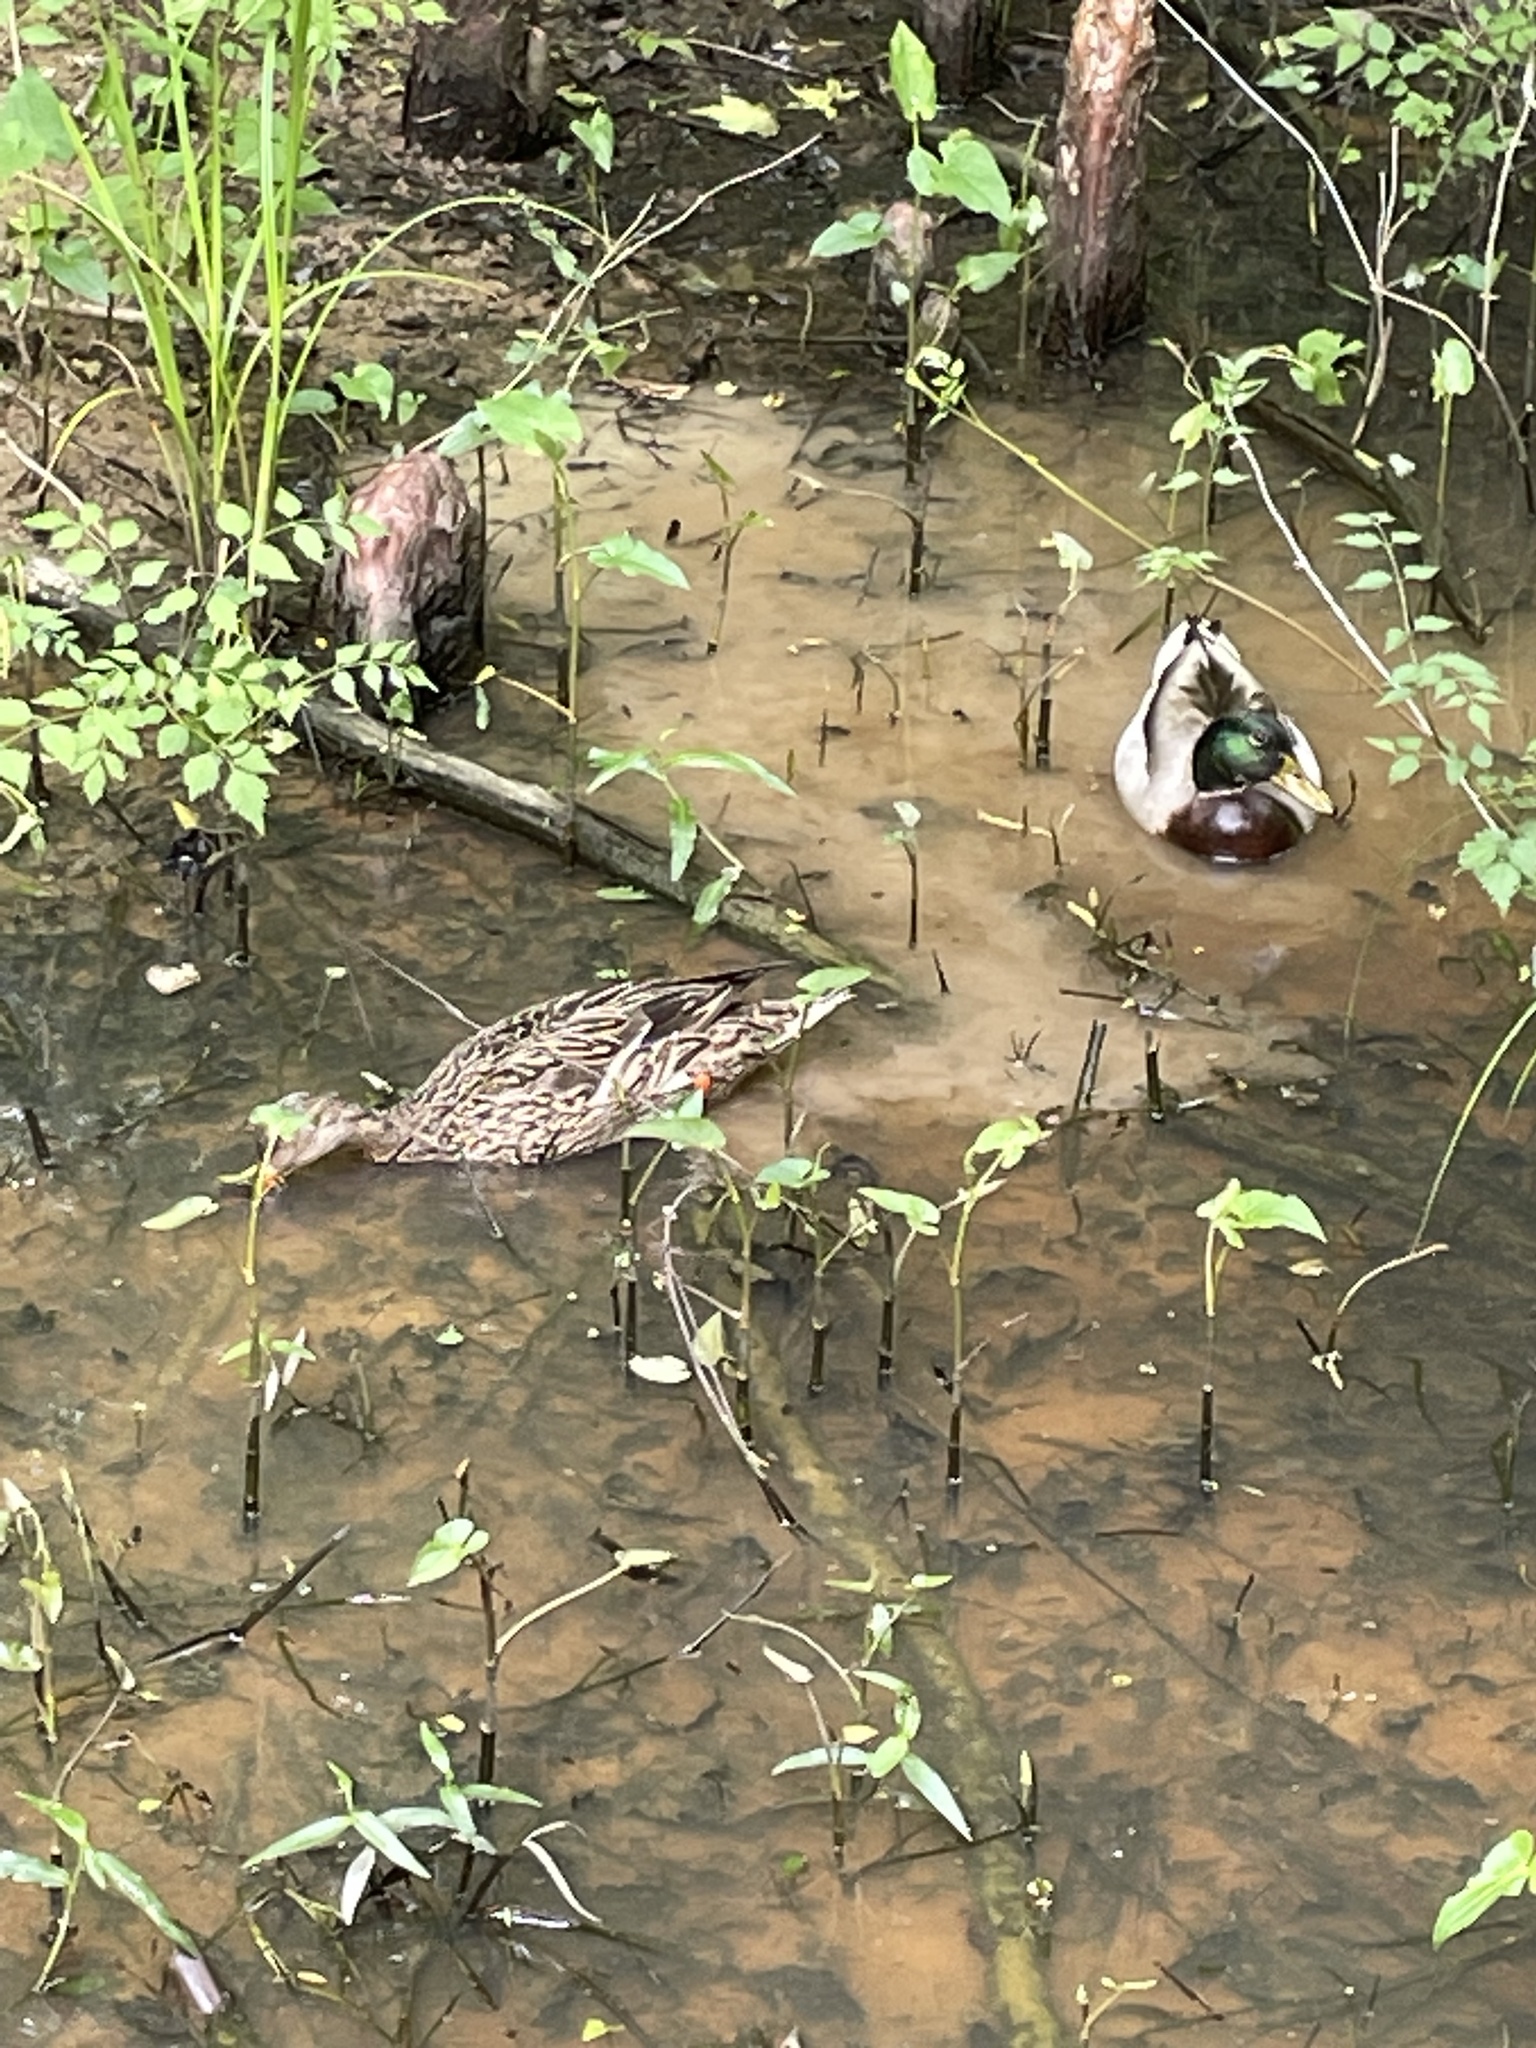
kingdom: Animalia
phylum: Chordata
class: Aves
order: Anseriformes
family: Anatidae
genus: Anas
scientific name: Anas platyrhynchos
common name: Mallard
